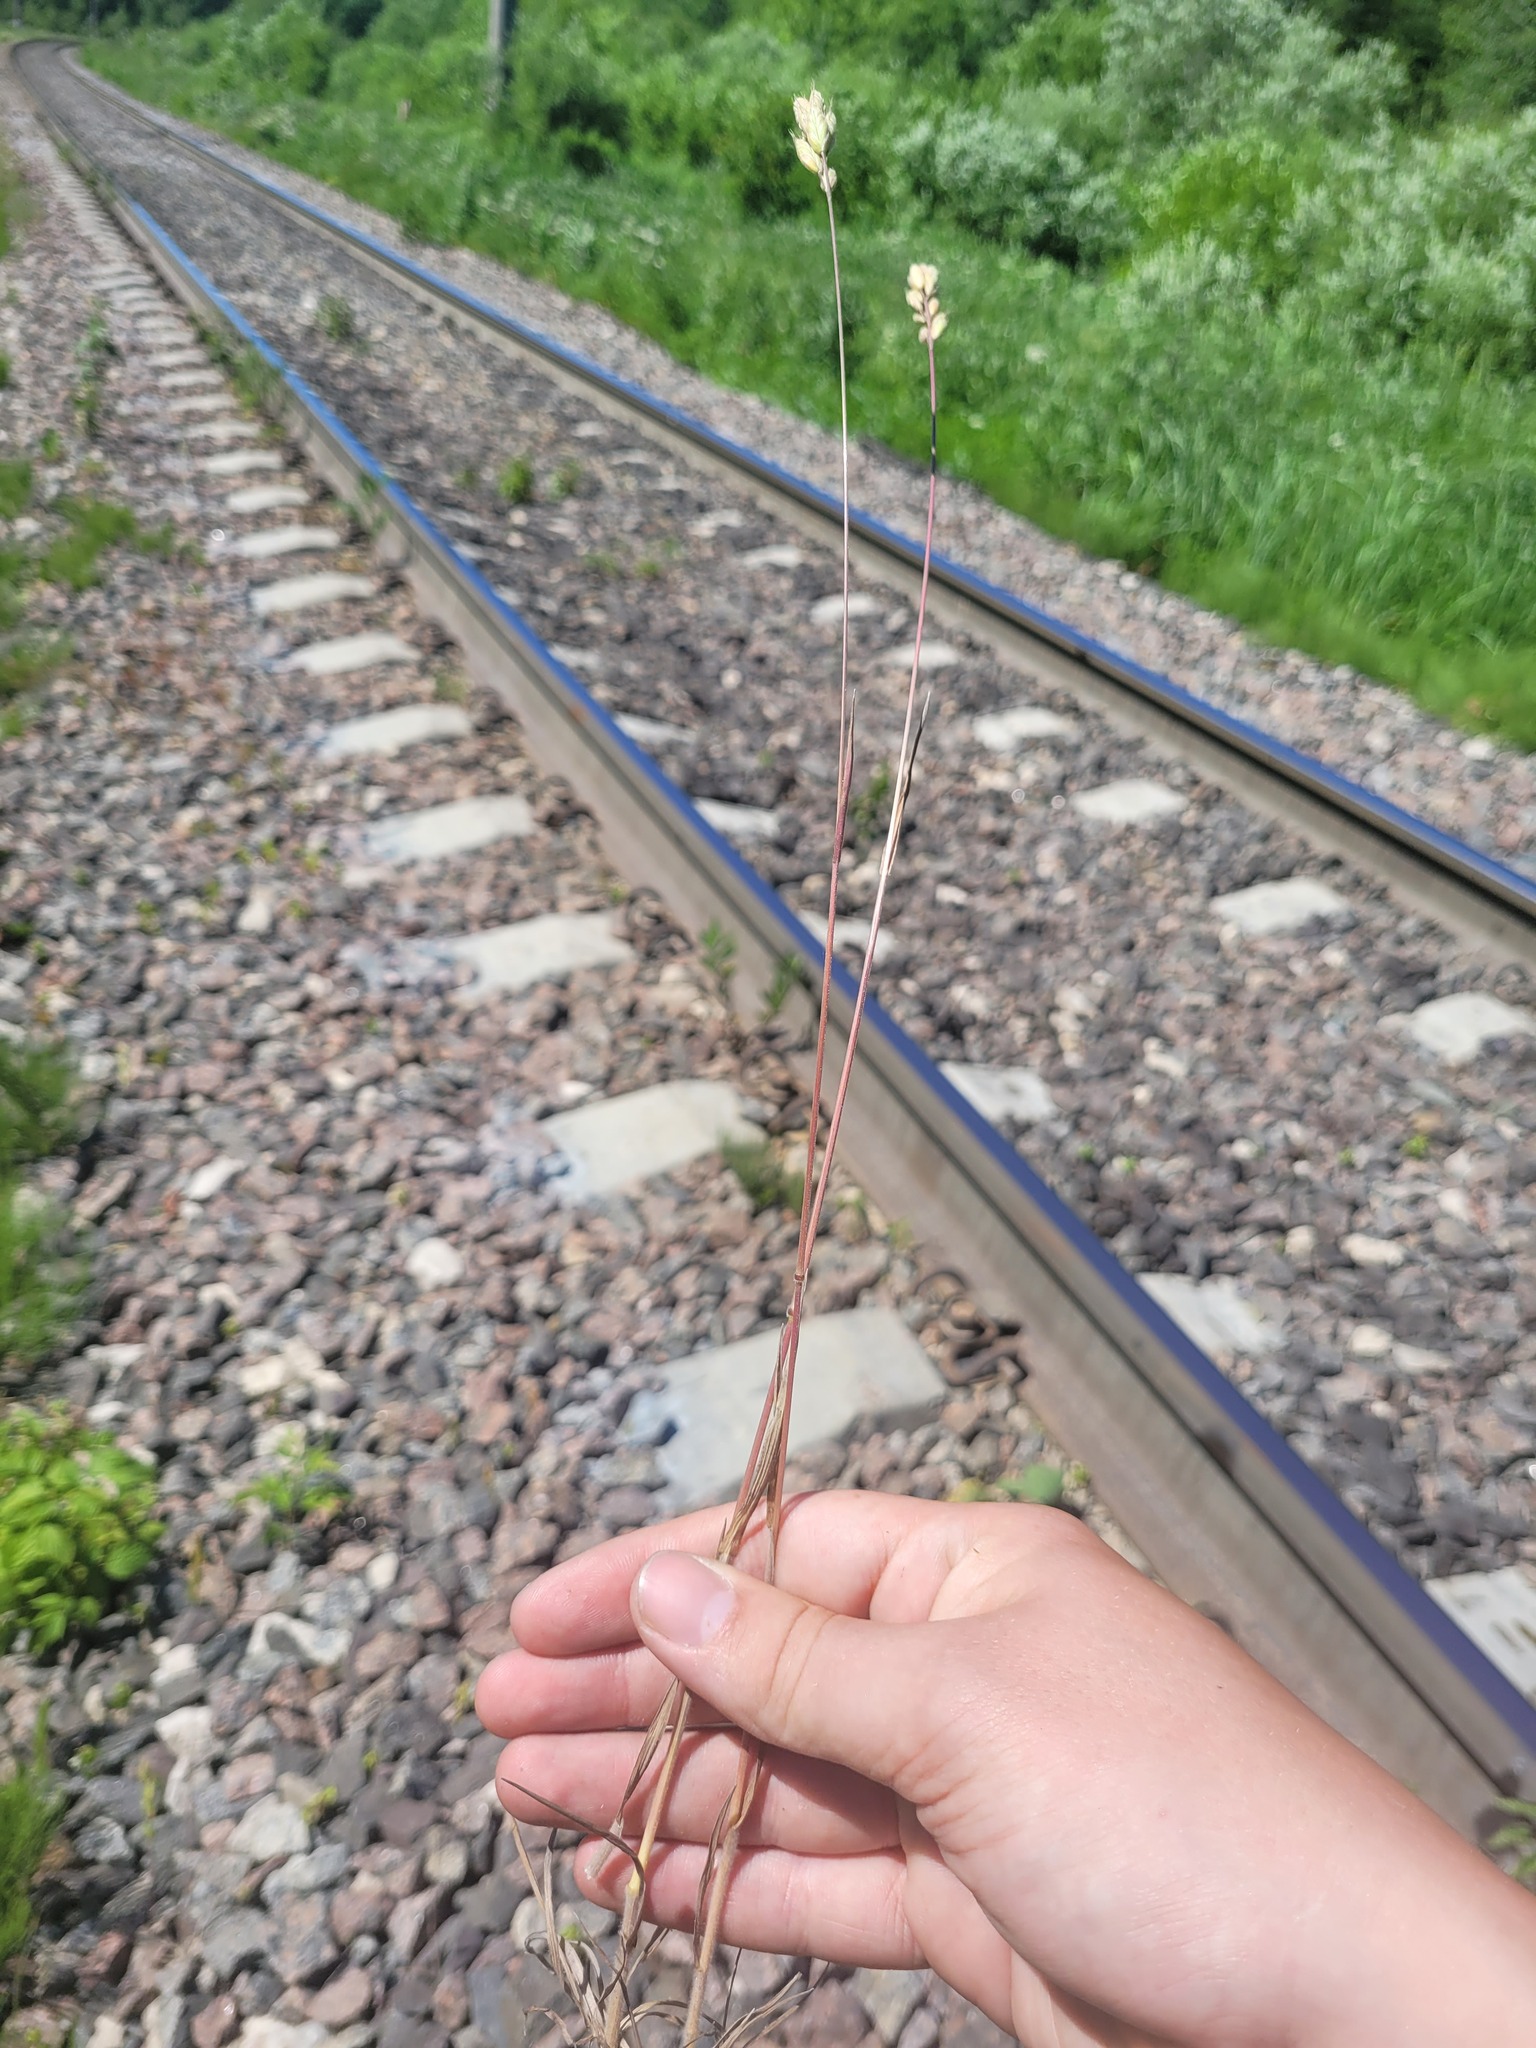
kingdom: Plantae
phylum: Tracheophyta
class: Liliopsida
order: Poales
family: Poaceae
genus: Bromus
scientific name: Bromus hordeaceus
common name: Soft brome
